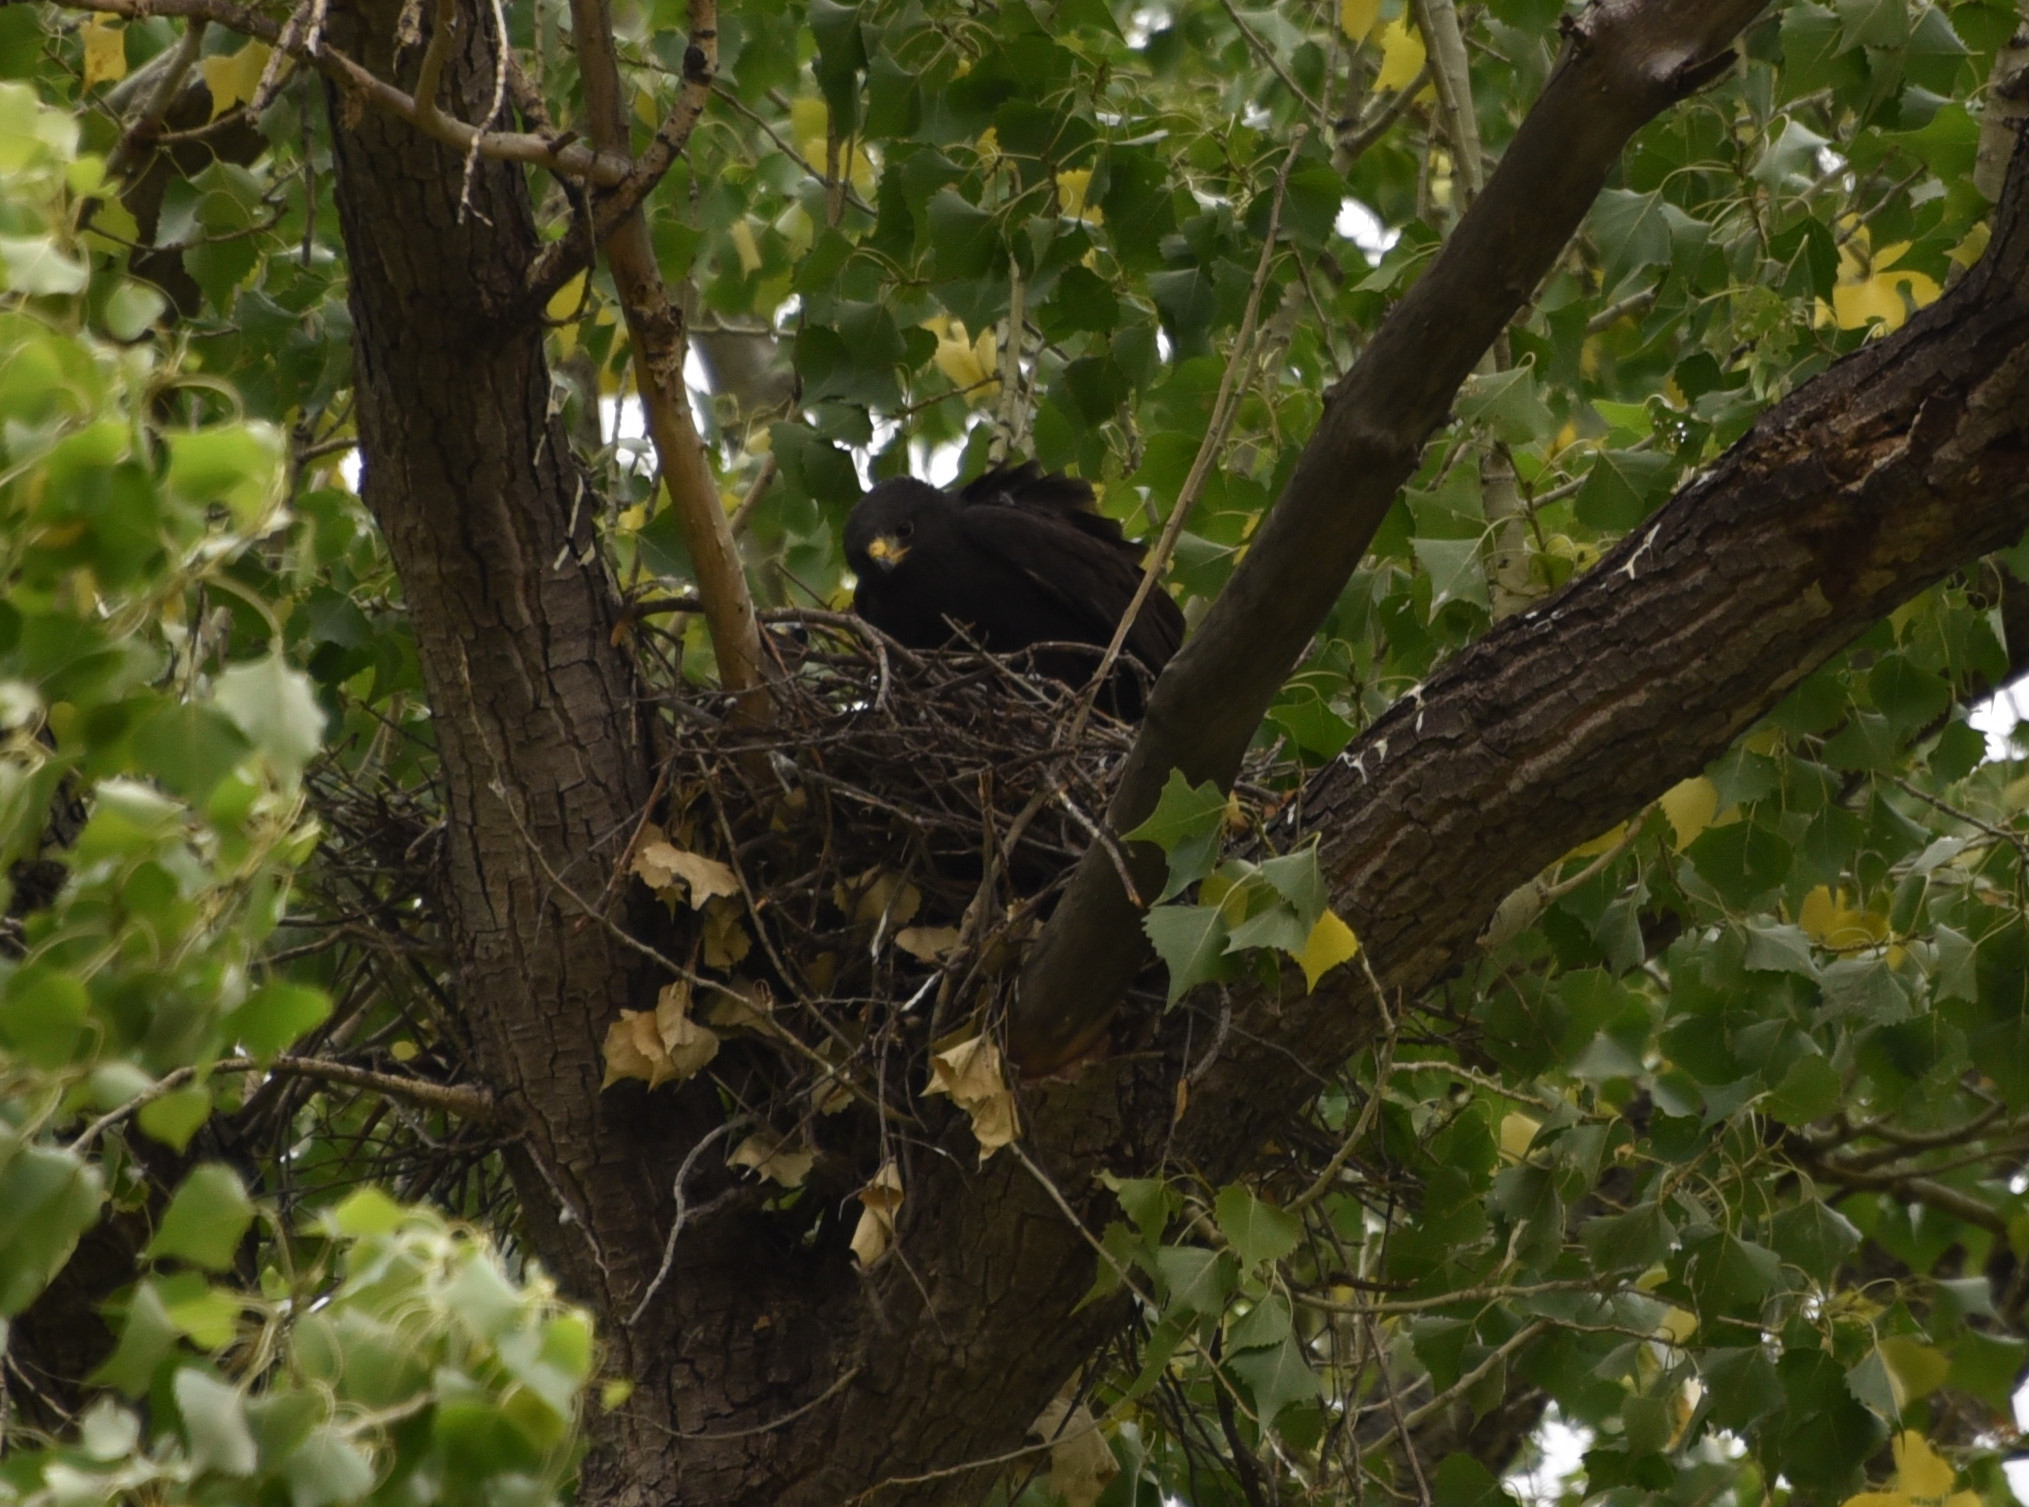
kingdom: Animalia
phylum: Chordata
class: Aves
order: Accipitriformes
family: Accipitridae
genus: Buteogallus
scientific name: Buteogallus anthracinus
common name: Common black hawk
